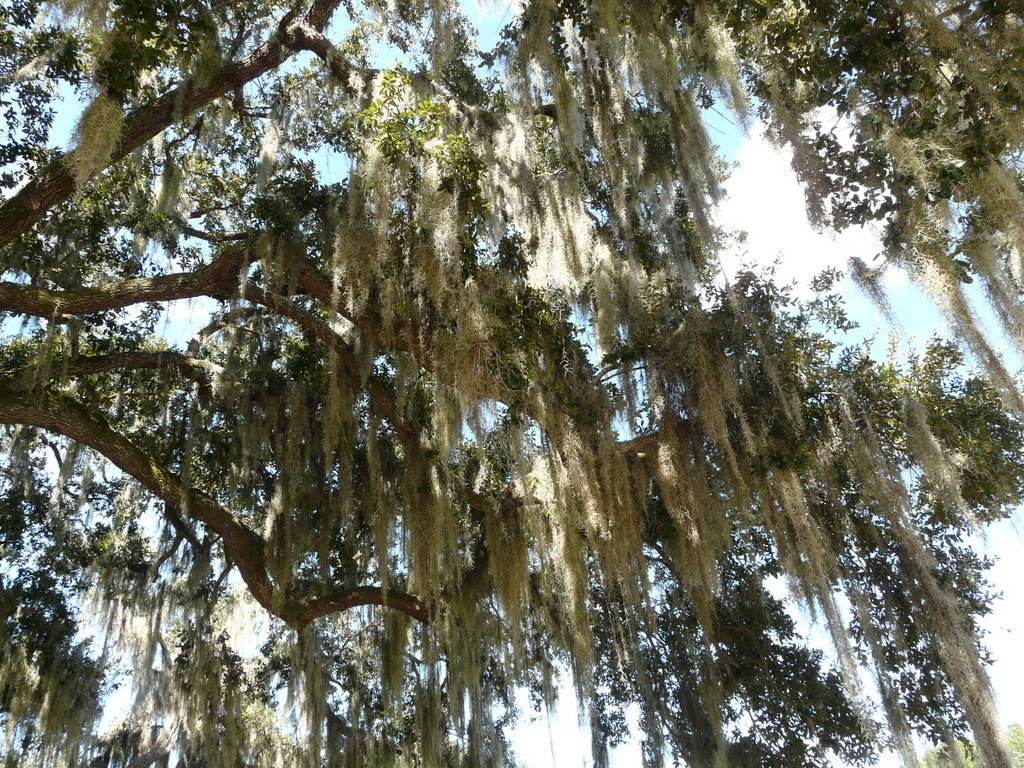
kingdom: Plantae
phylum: Tracheophyta
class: Liliopsida
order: Poales
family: Bromeliaceae
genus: Tillandsia
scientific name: Tillandsia usneoides
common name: Spanish moss
